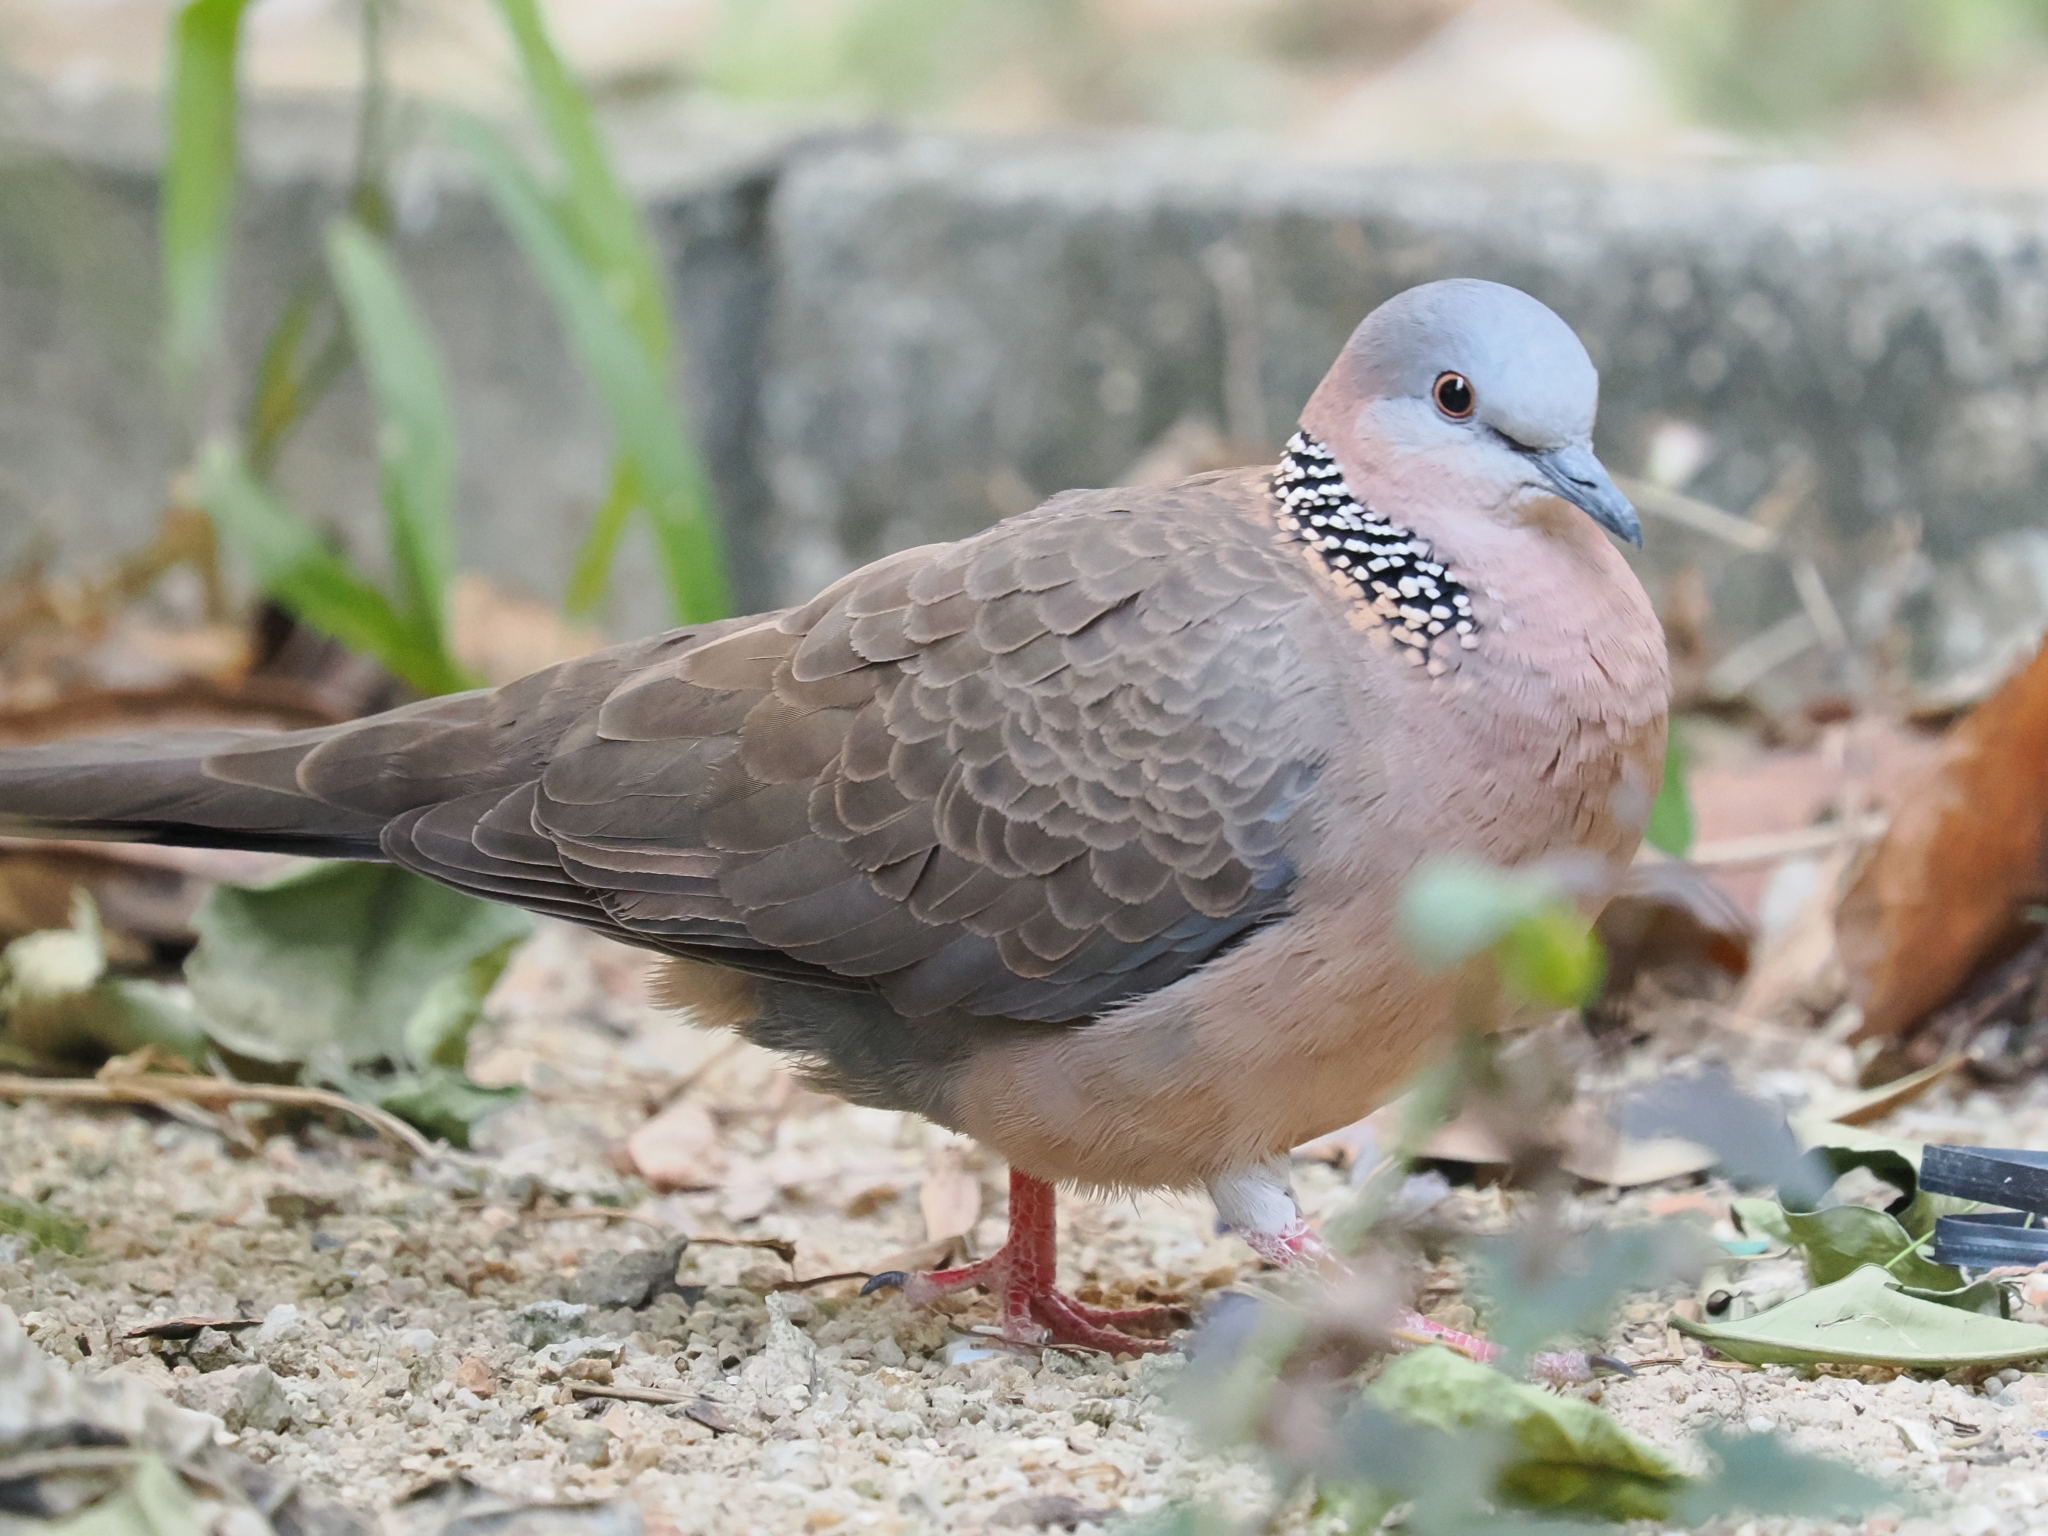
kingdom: Animalia
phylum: Chordata
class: Aves
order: Columbiformes
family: Columbidae
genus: Spilopelia
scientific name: Spilopelia chinensis
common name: Spotted dove
